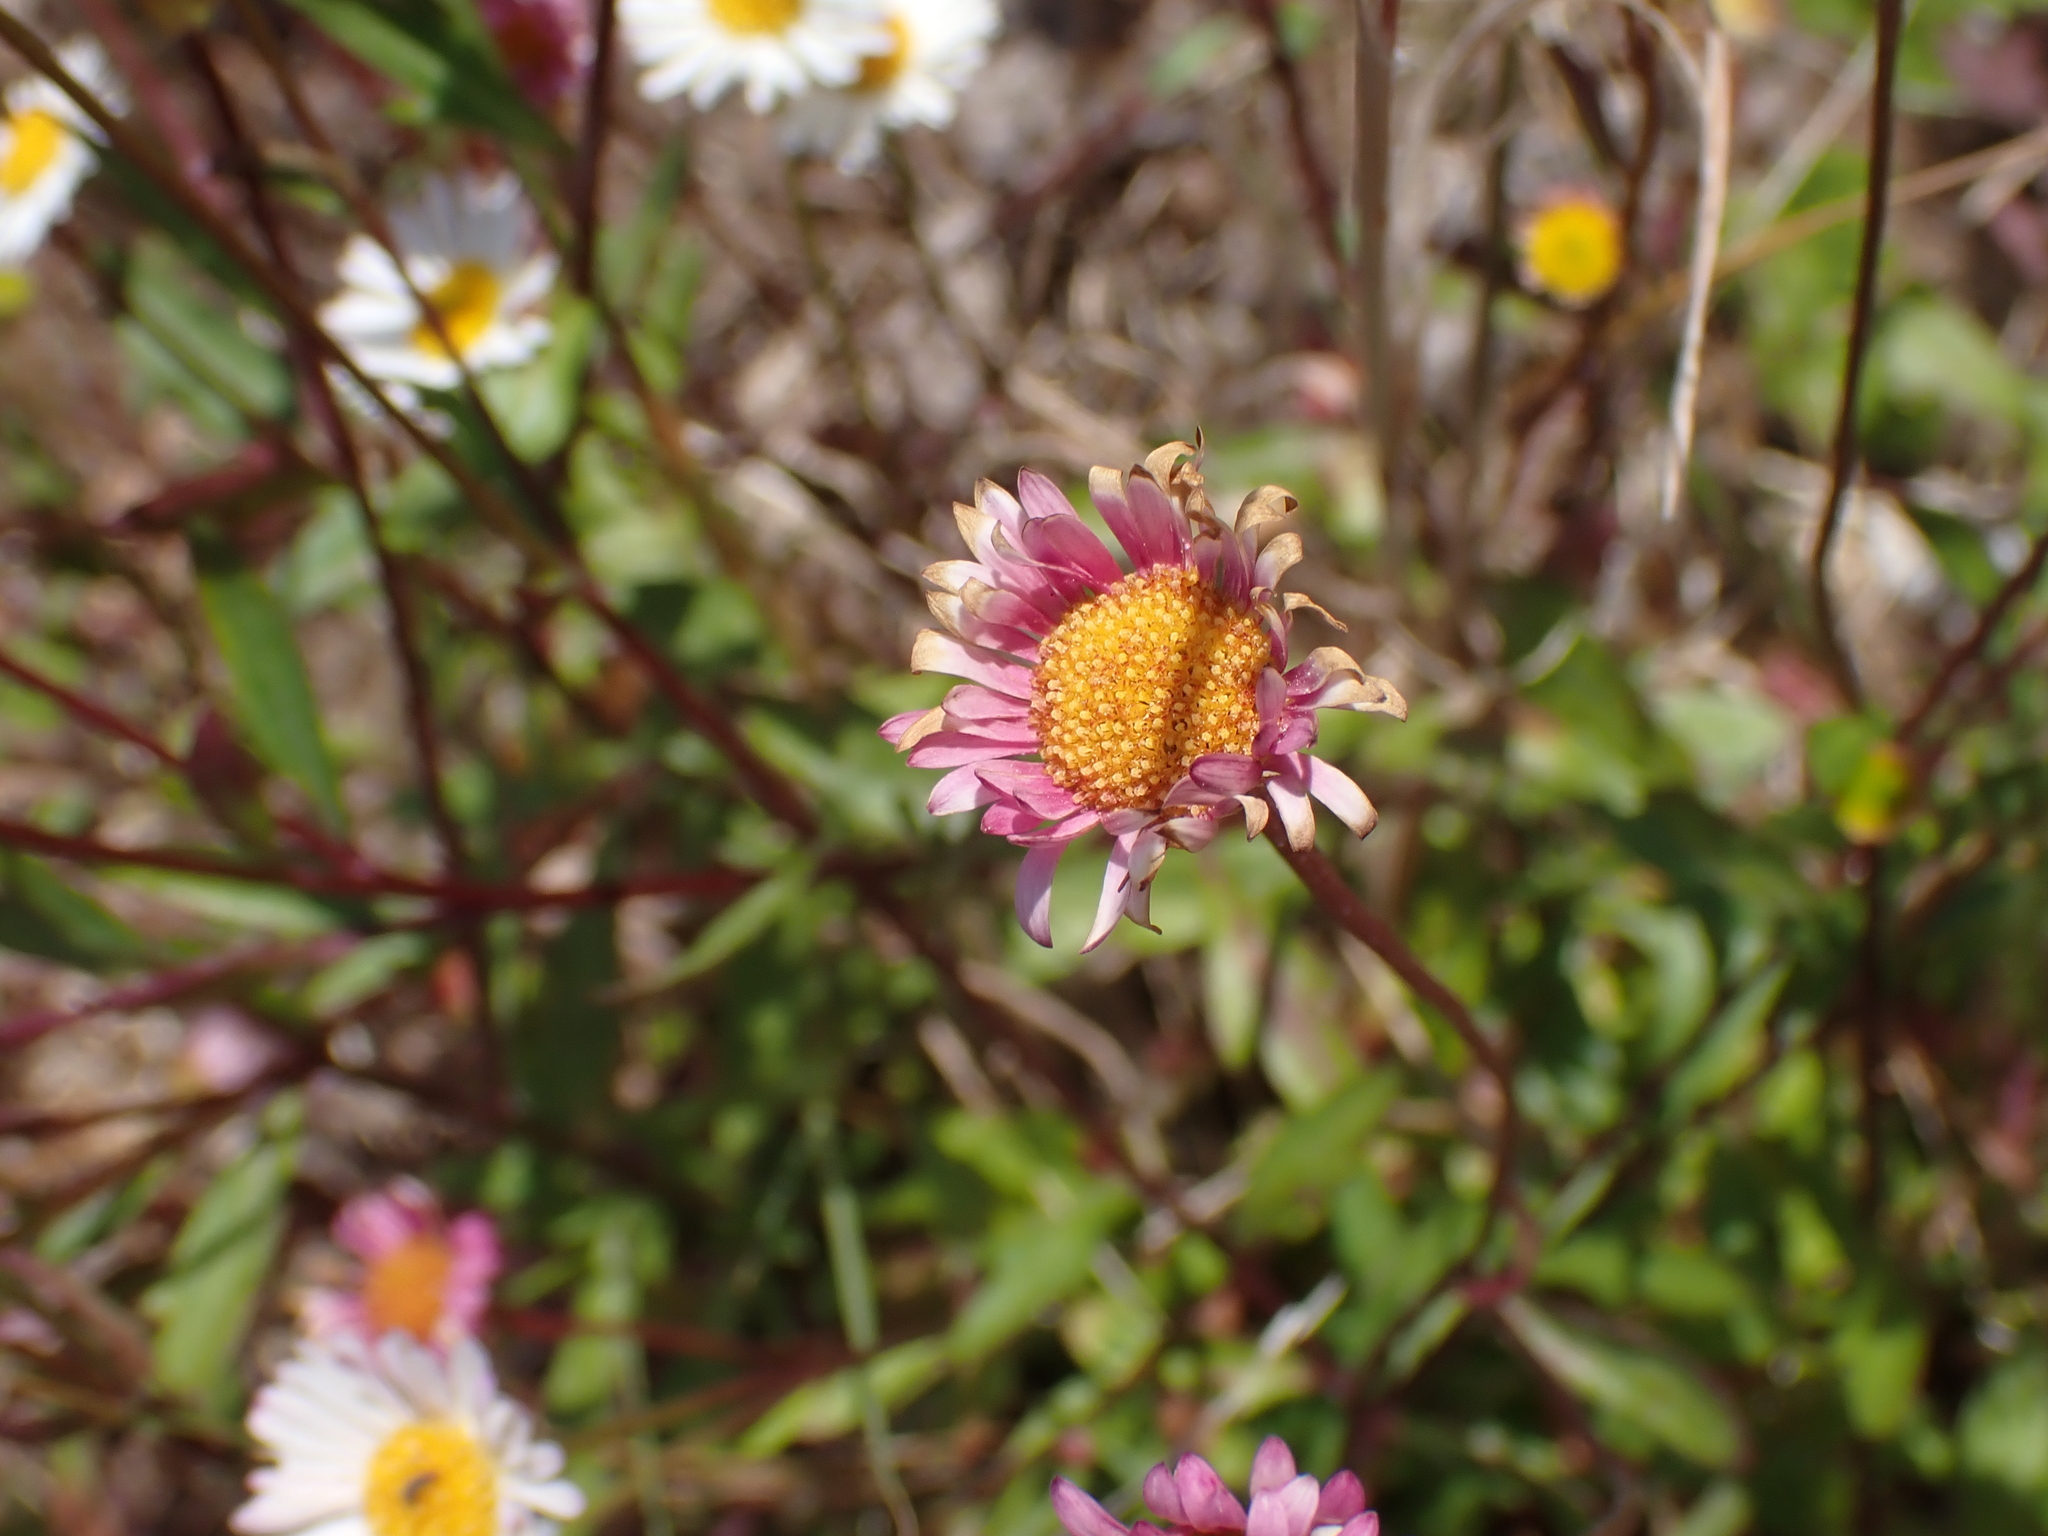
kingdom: Plantae
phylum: Tracheophyta
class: Magnoliopsida
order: Asterales
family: Asteraceae
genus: Erigeron
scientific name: Erigeron karvinskianus
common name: Mexican fleabane
